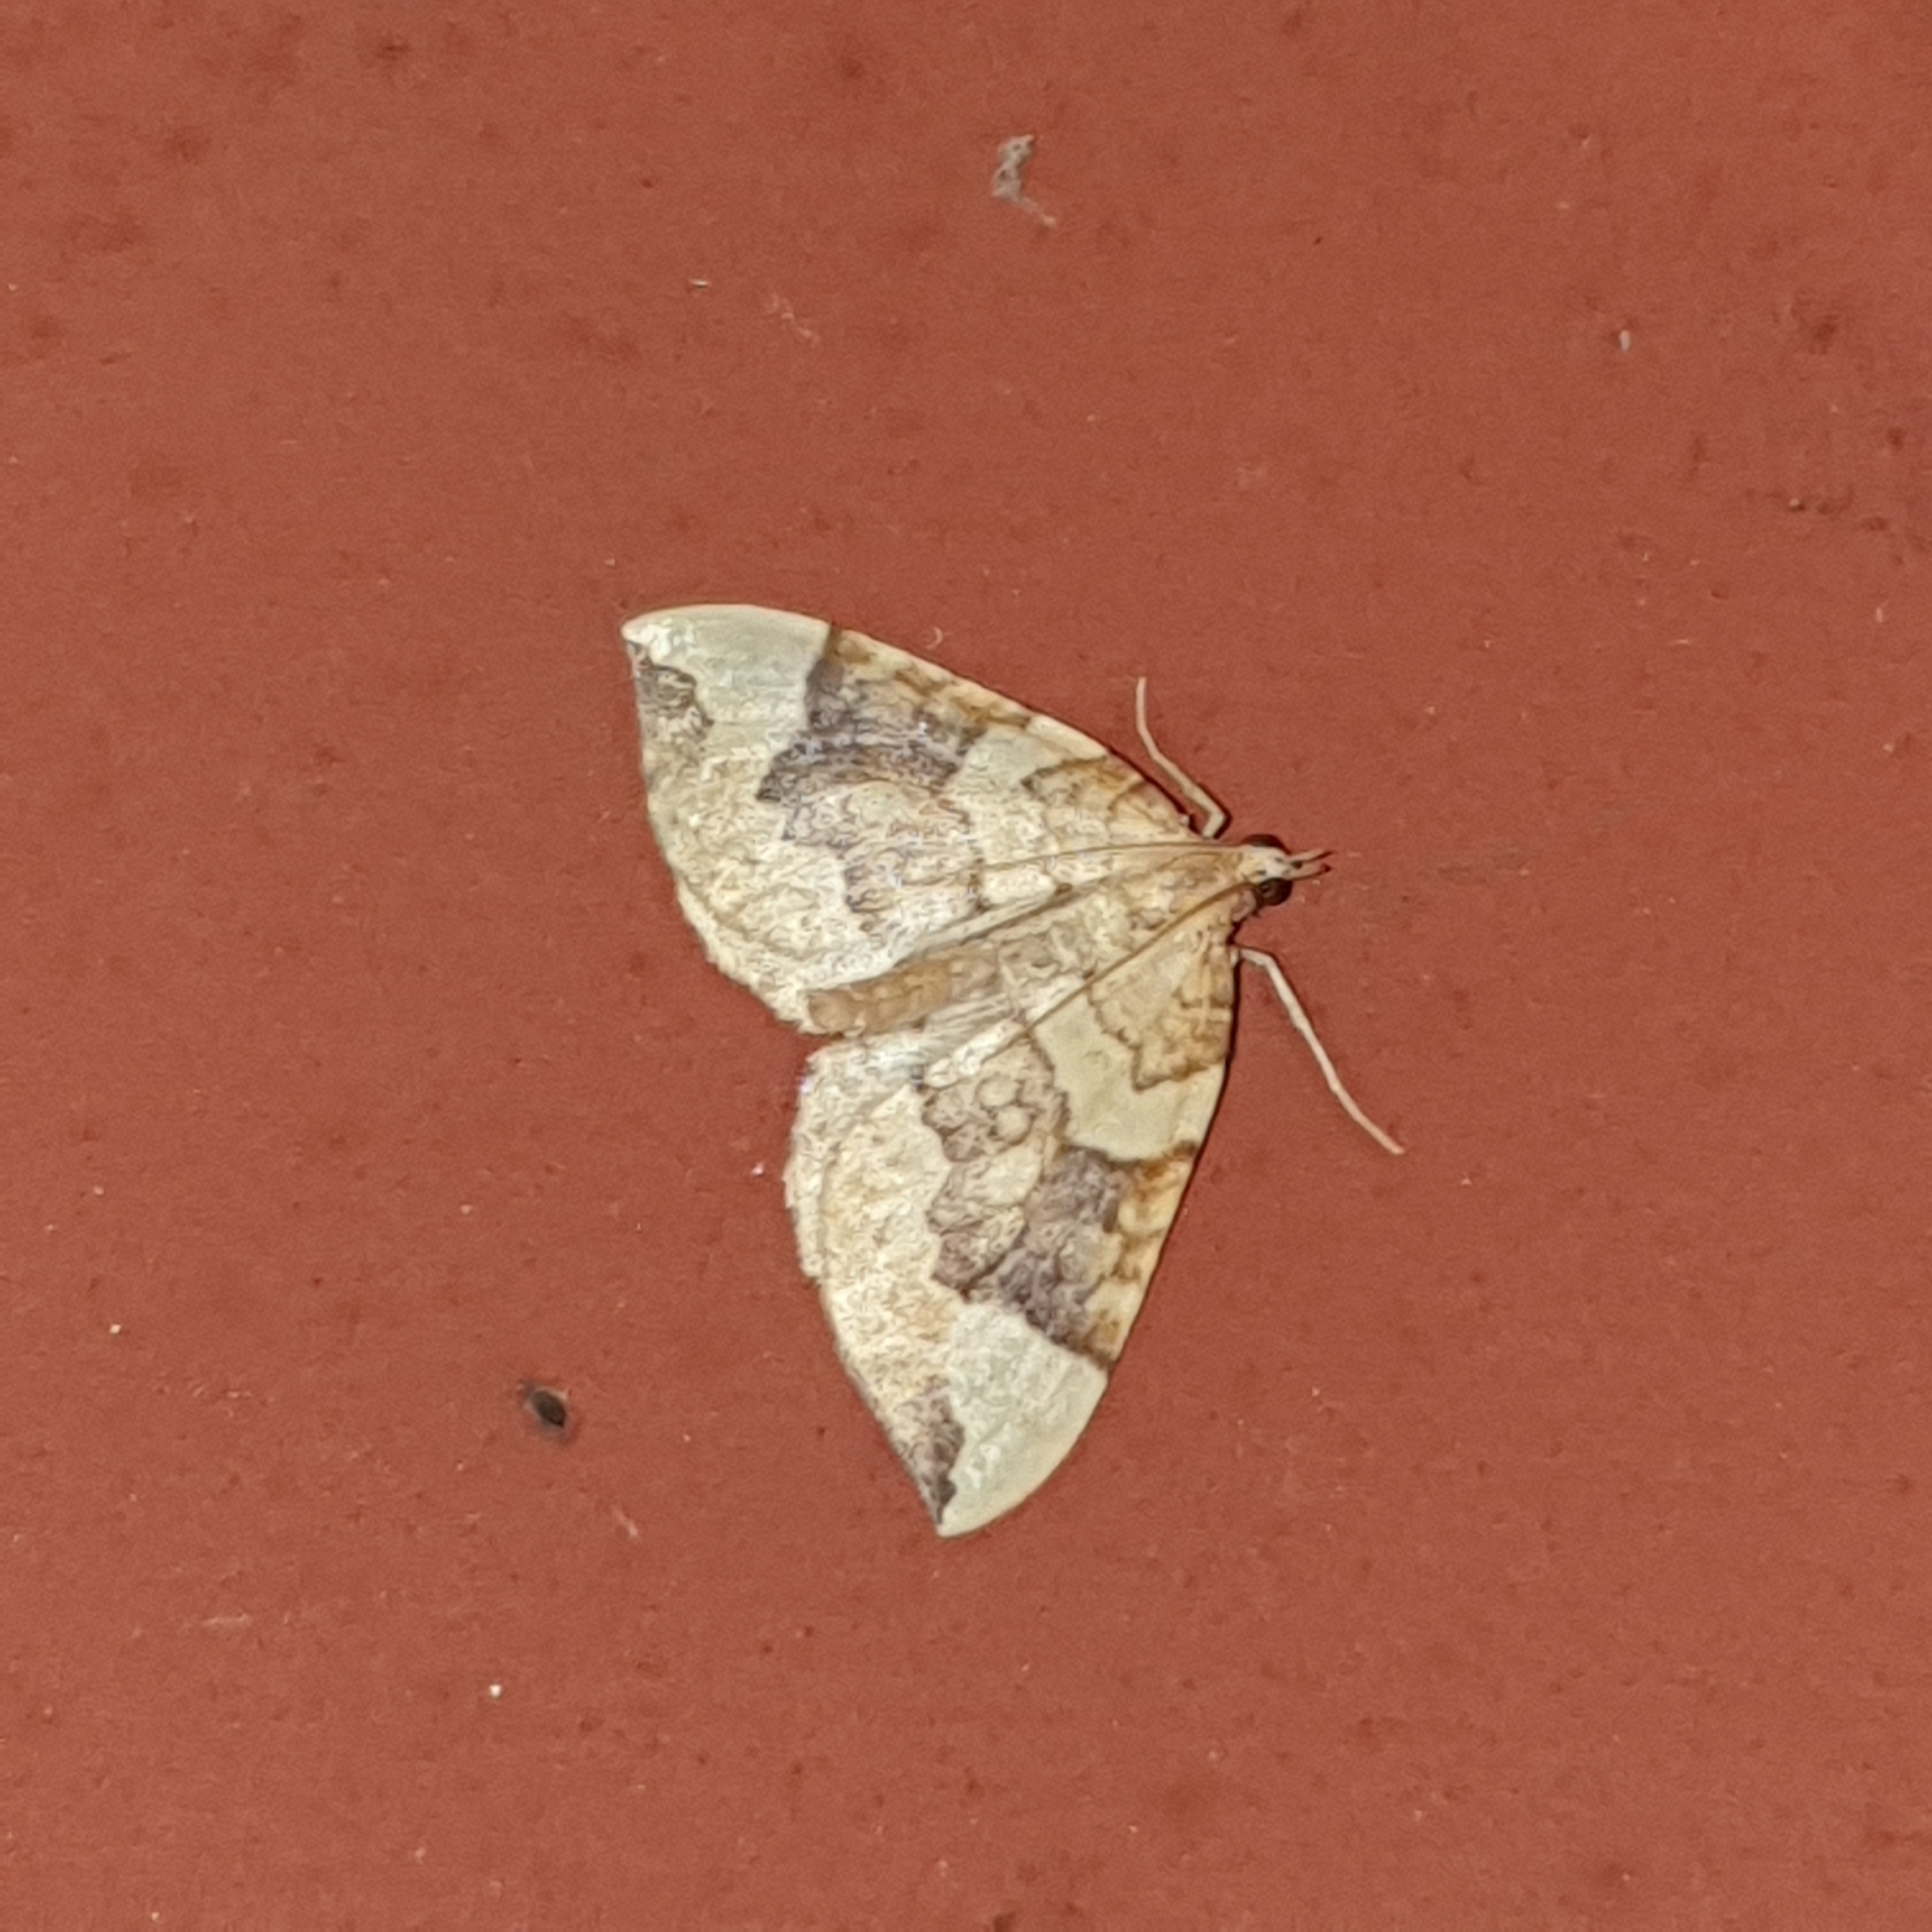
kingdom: Animalia
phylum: Arthropoda
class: Insecta
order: Lepidoptera
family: Geometridae
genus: Eulithis
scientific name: Eulithis populata
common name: Northern spinach
